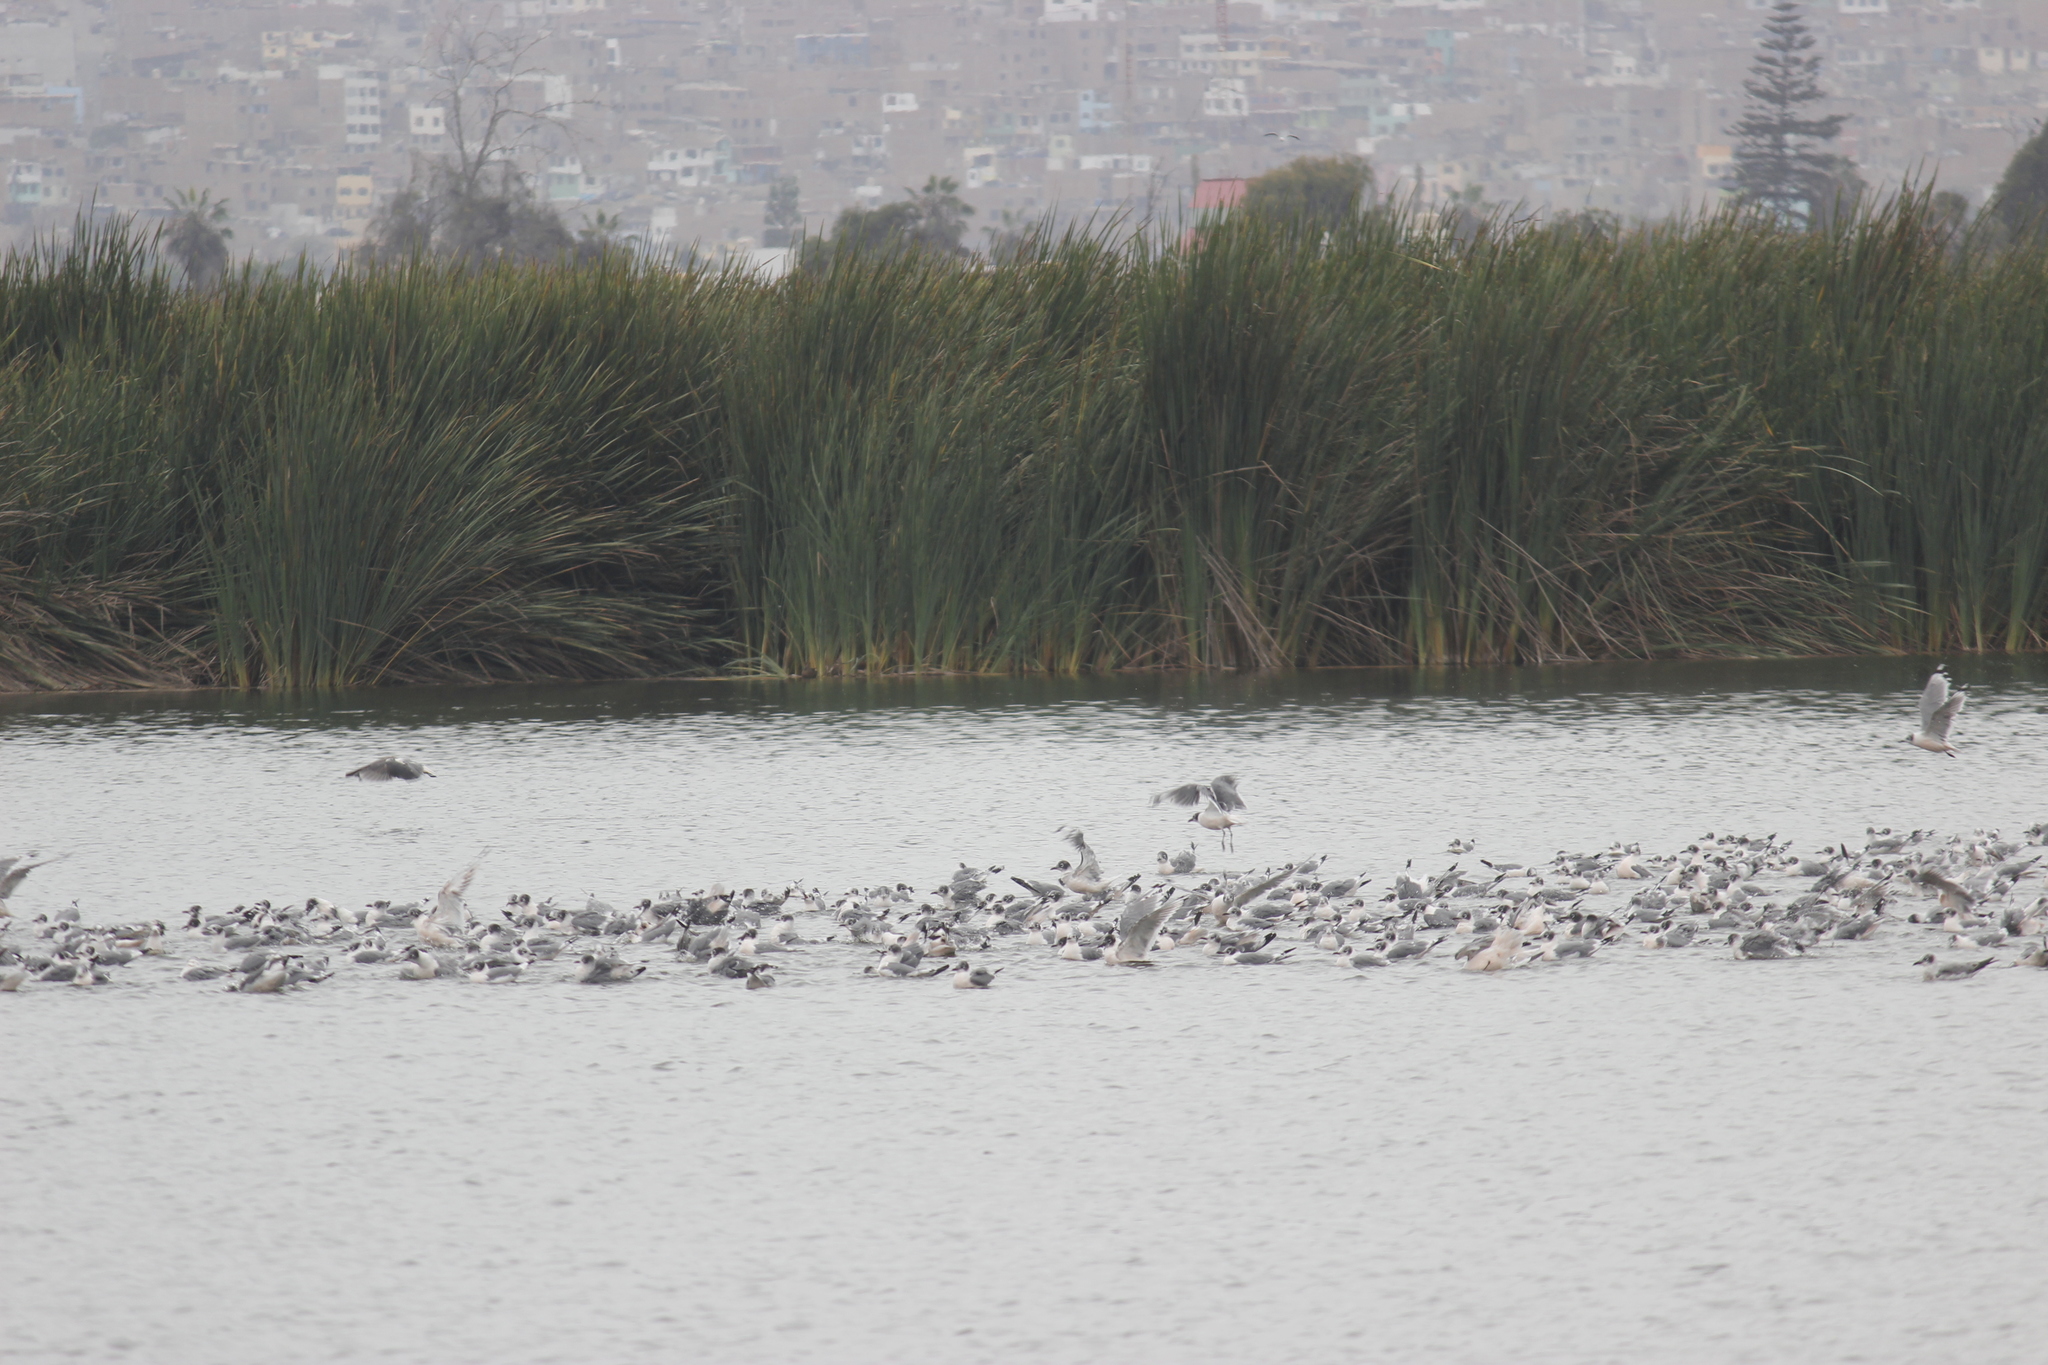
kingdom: Animalia
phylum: Chordata
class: Aves
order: Charadriiformes
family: Laridae
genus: Leucophaeus
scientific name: Leucophaeus pipixcan
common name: Franklin's gull
